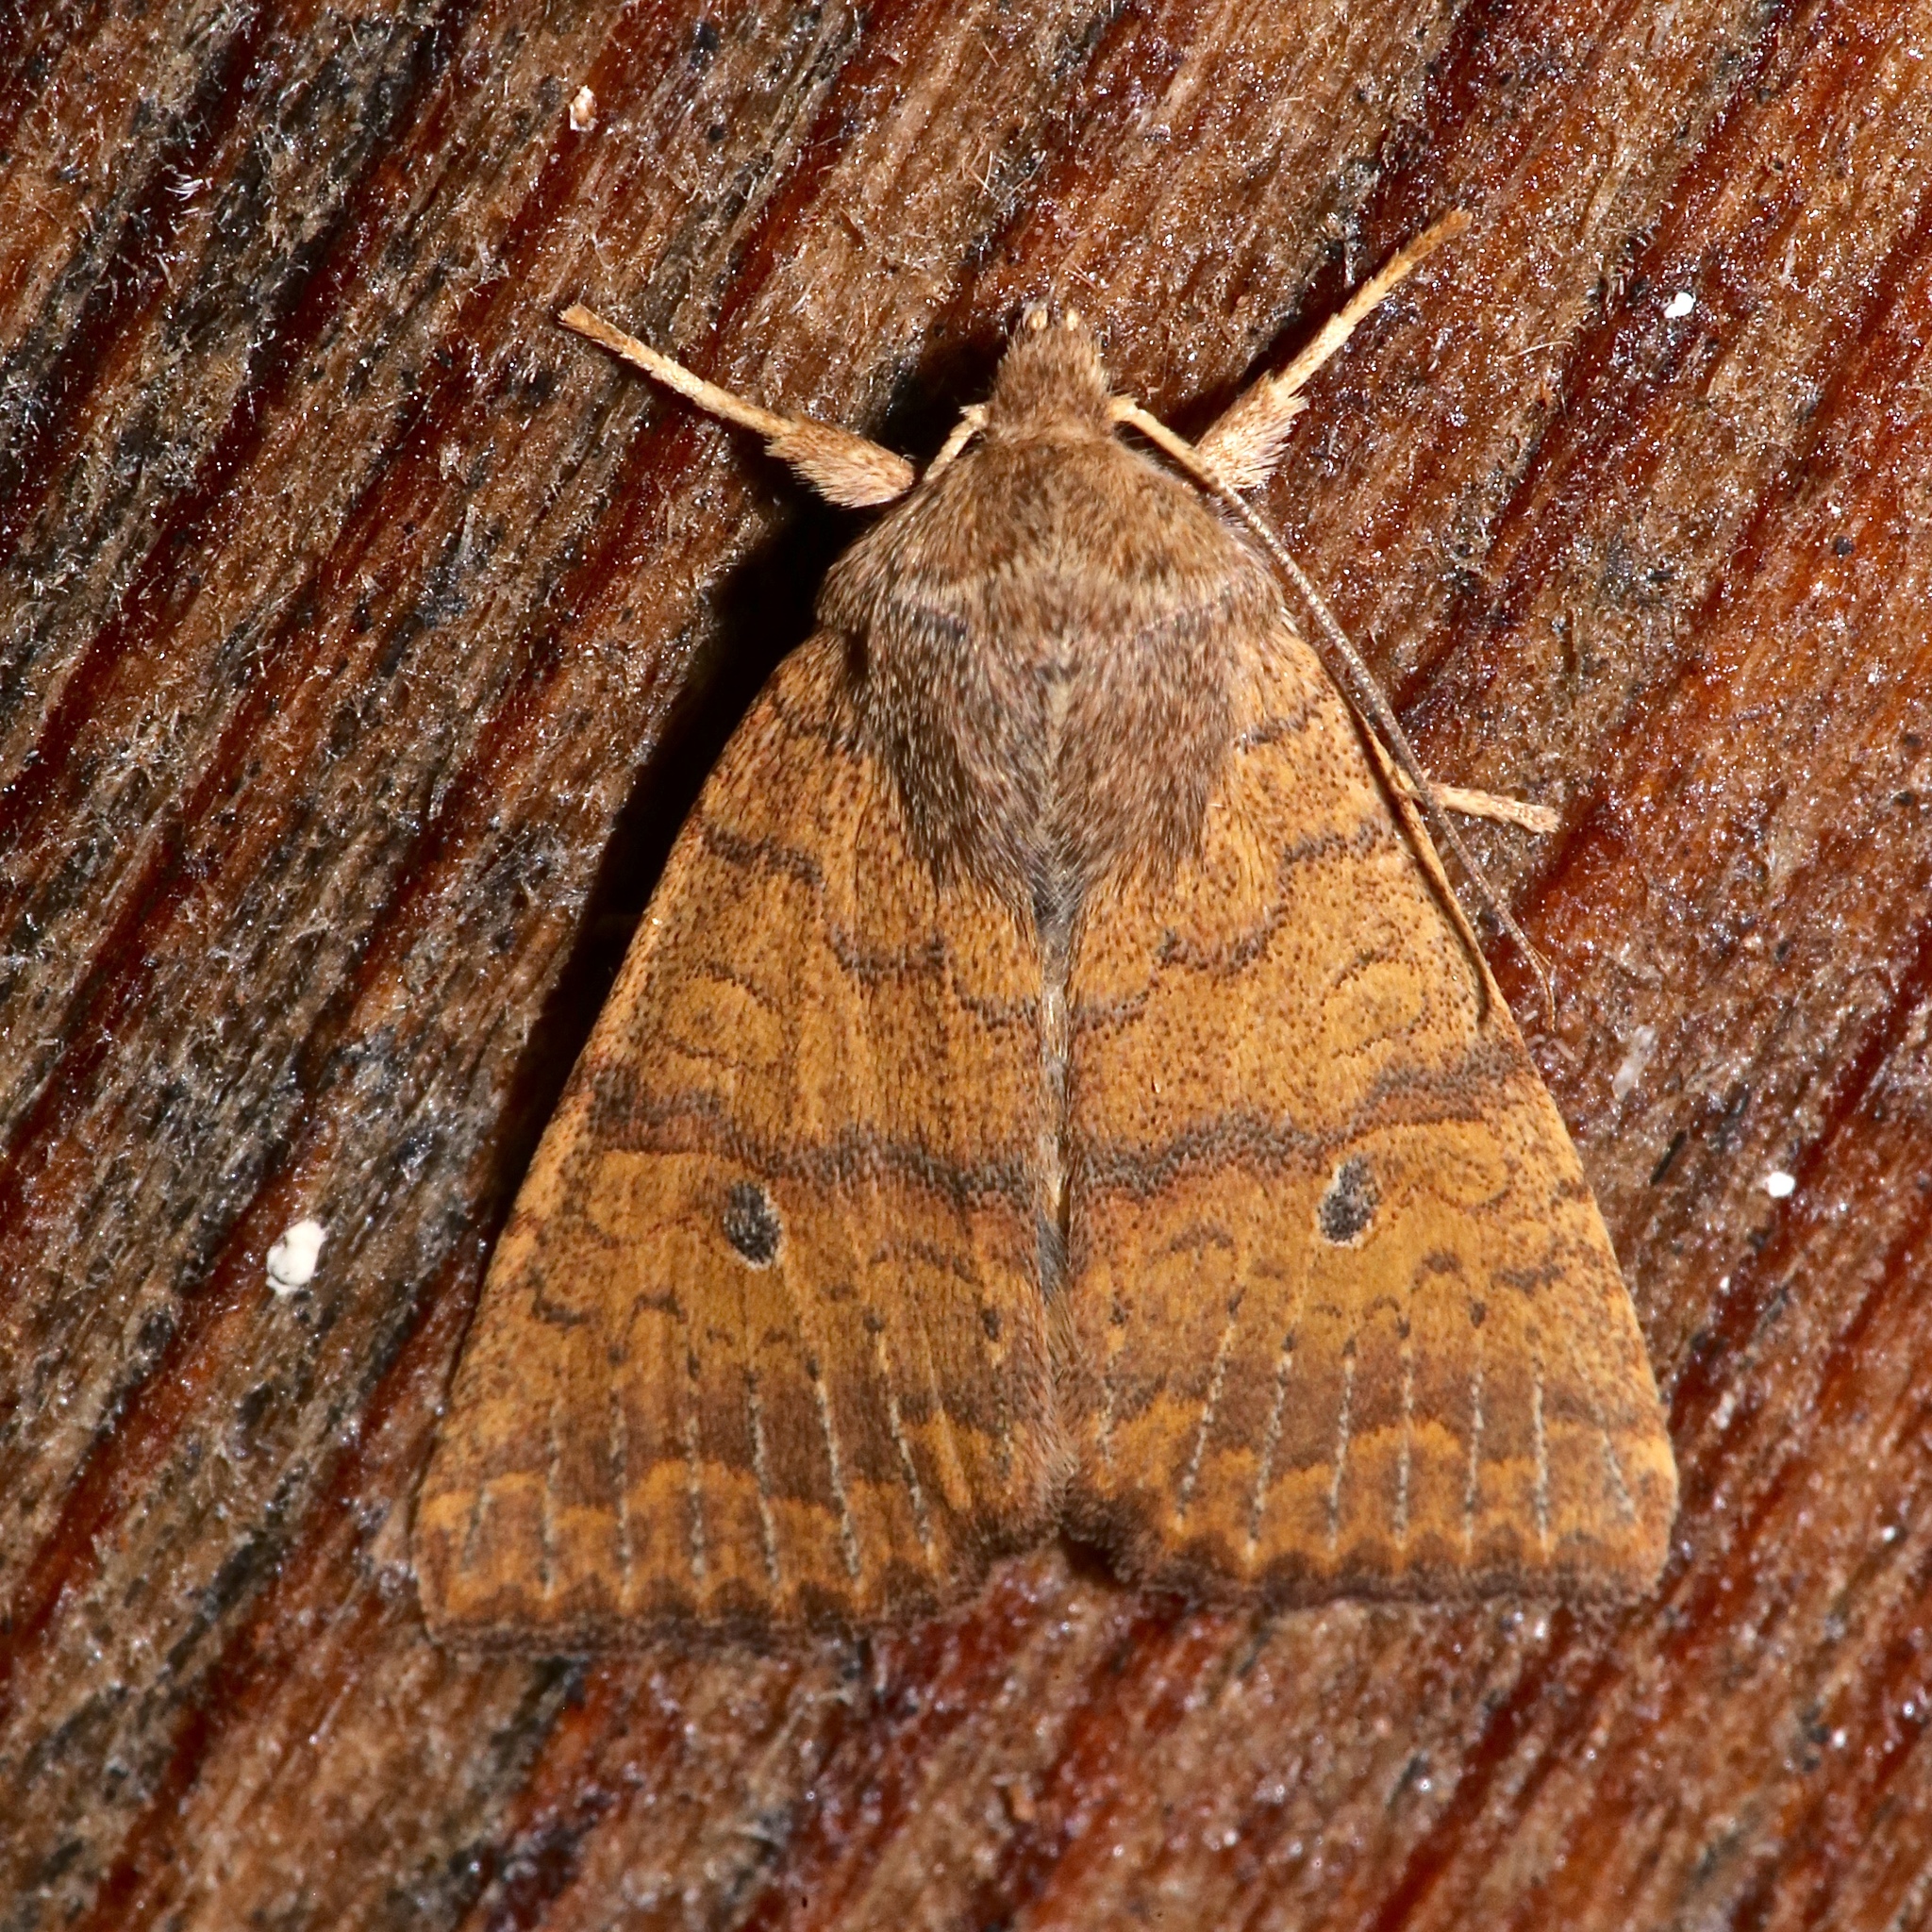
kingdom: Animalia
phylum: Arthropoda
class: Insecta
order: Lepidoptera
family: Noctuidae
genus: Agrochola
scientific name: Agrochola bicolorago
